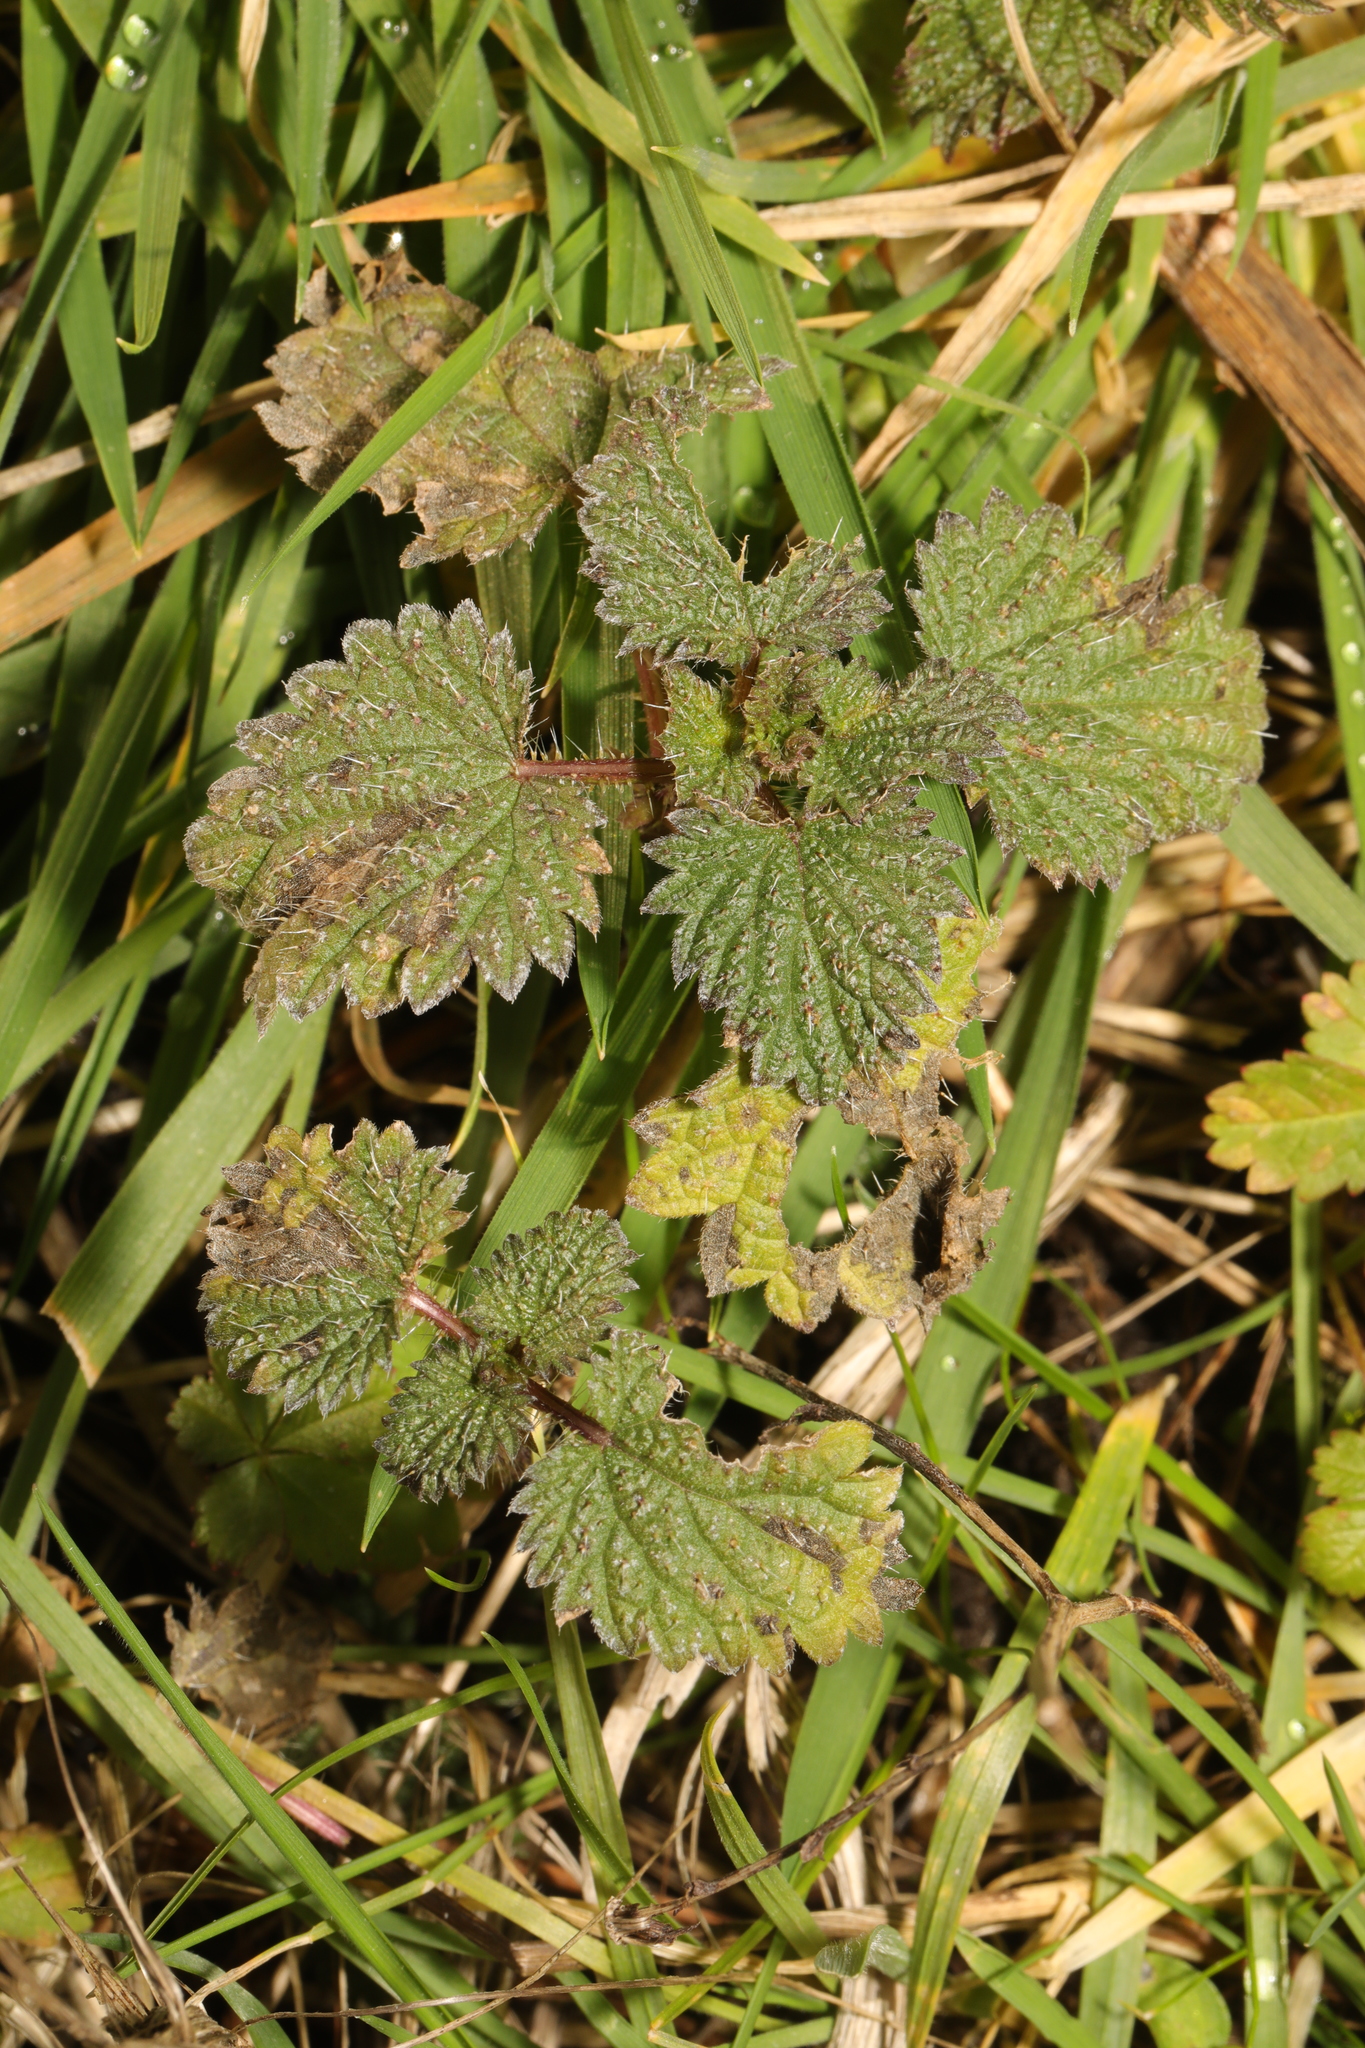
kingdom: Plantae
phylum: Tracheophyta
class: Magnoliopsida
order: Rosales
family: Urticaceae
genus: Urtica
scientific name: Urtica dioica
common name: Common nettle
